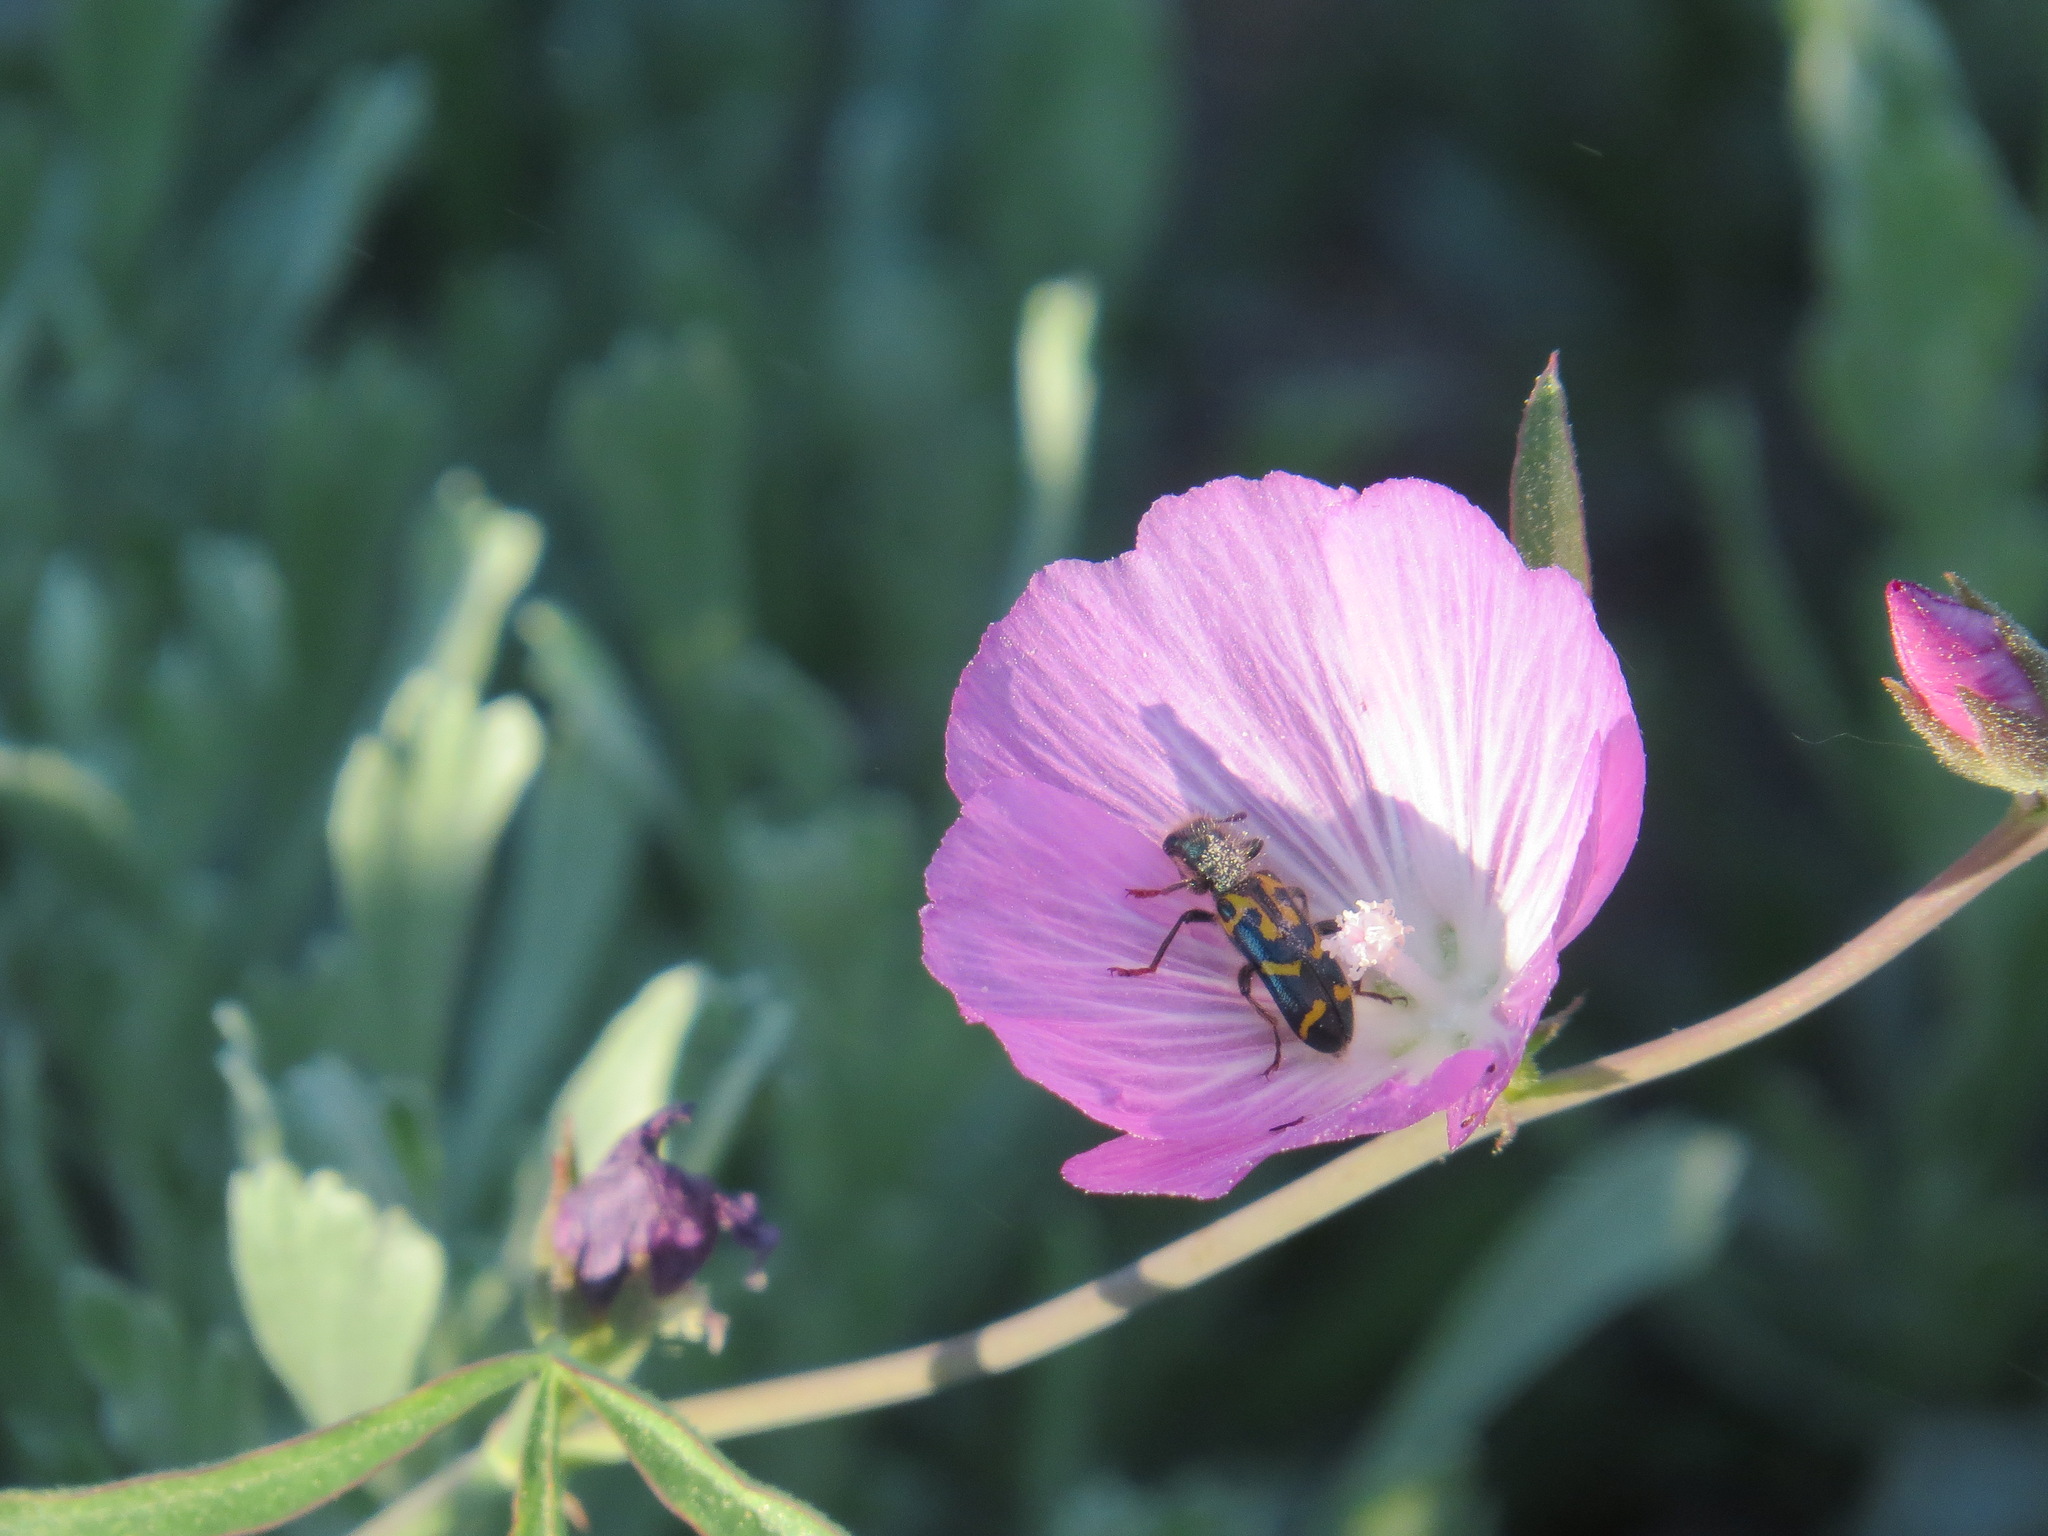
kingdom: Animalia
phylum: Arthropoda
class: Insecta
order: Coleoptera
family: Cleridae
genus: Trichodes
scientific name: Trichodes ornatus
